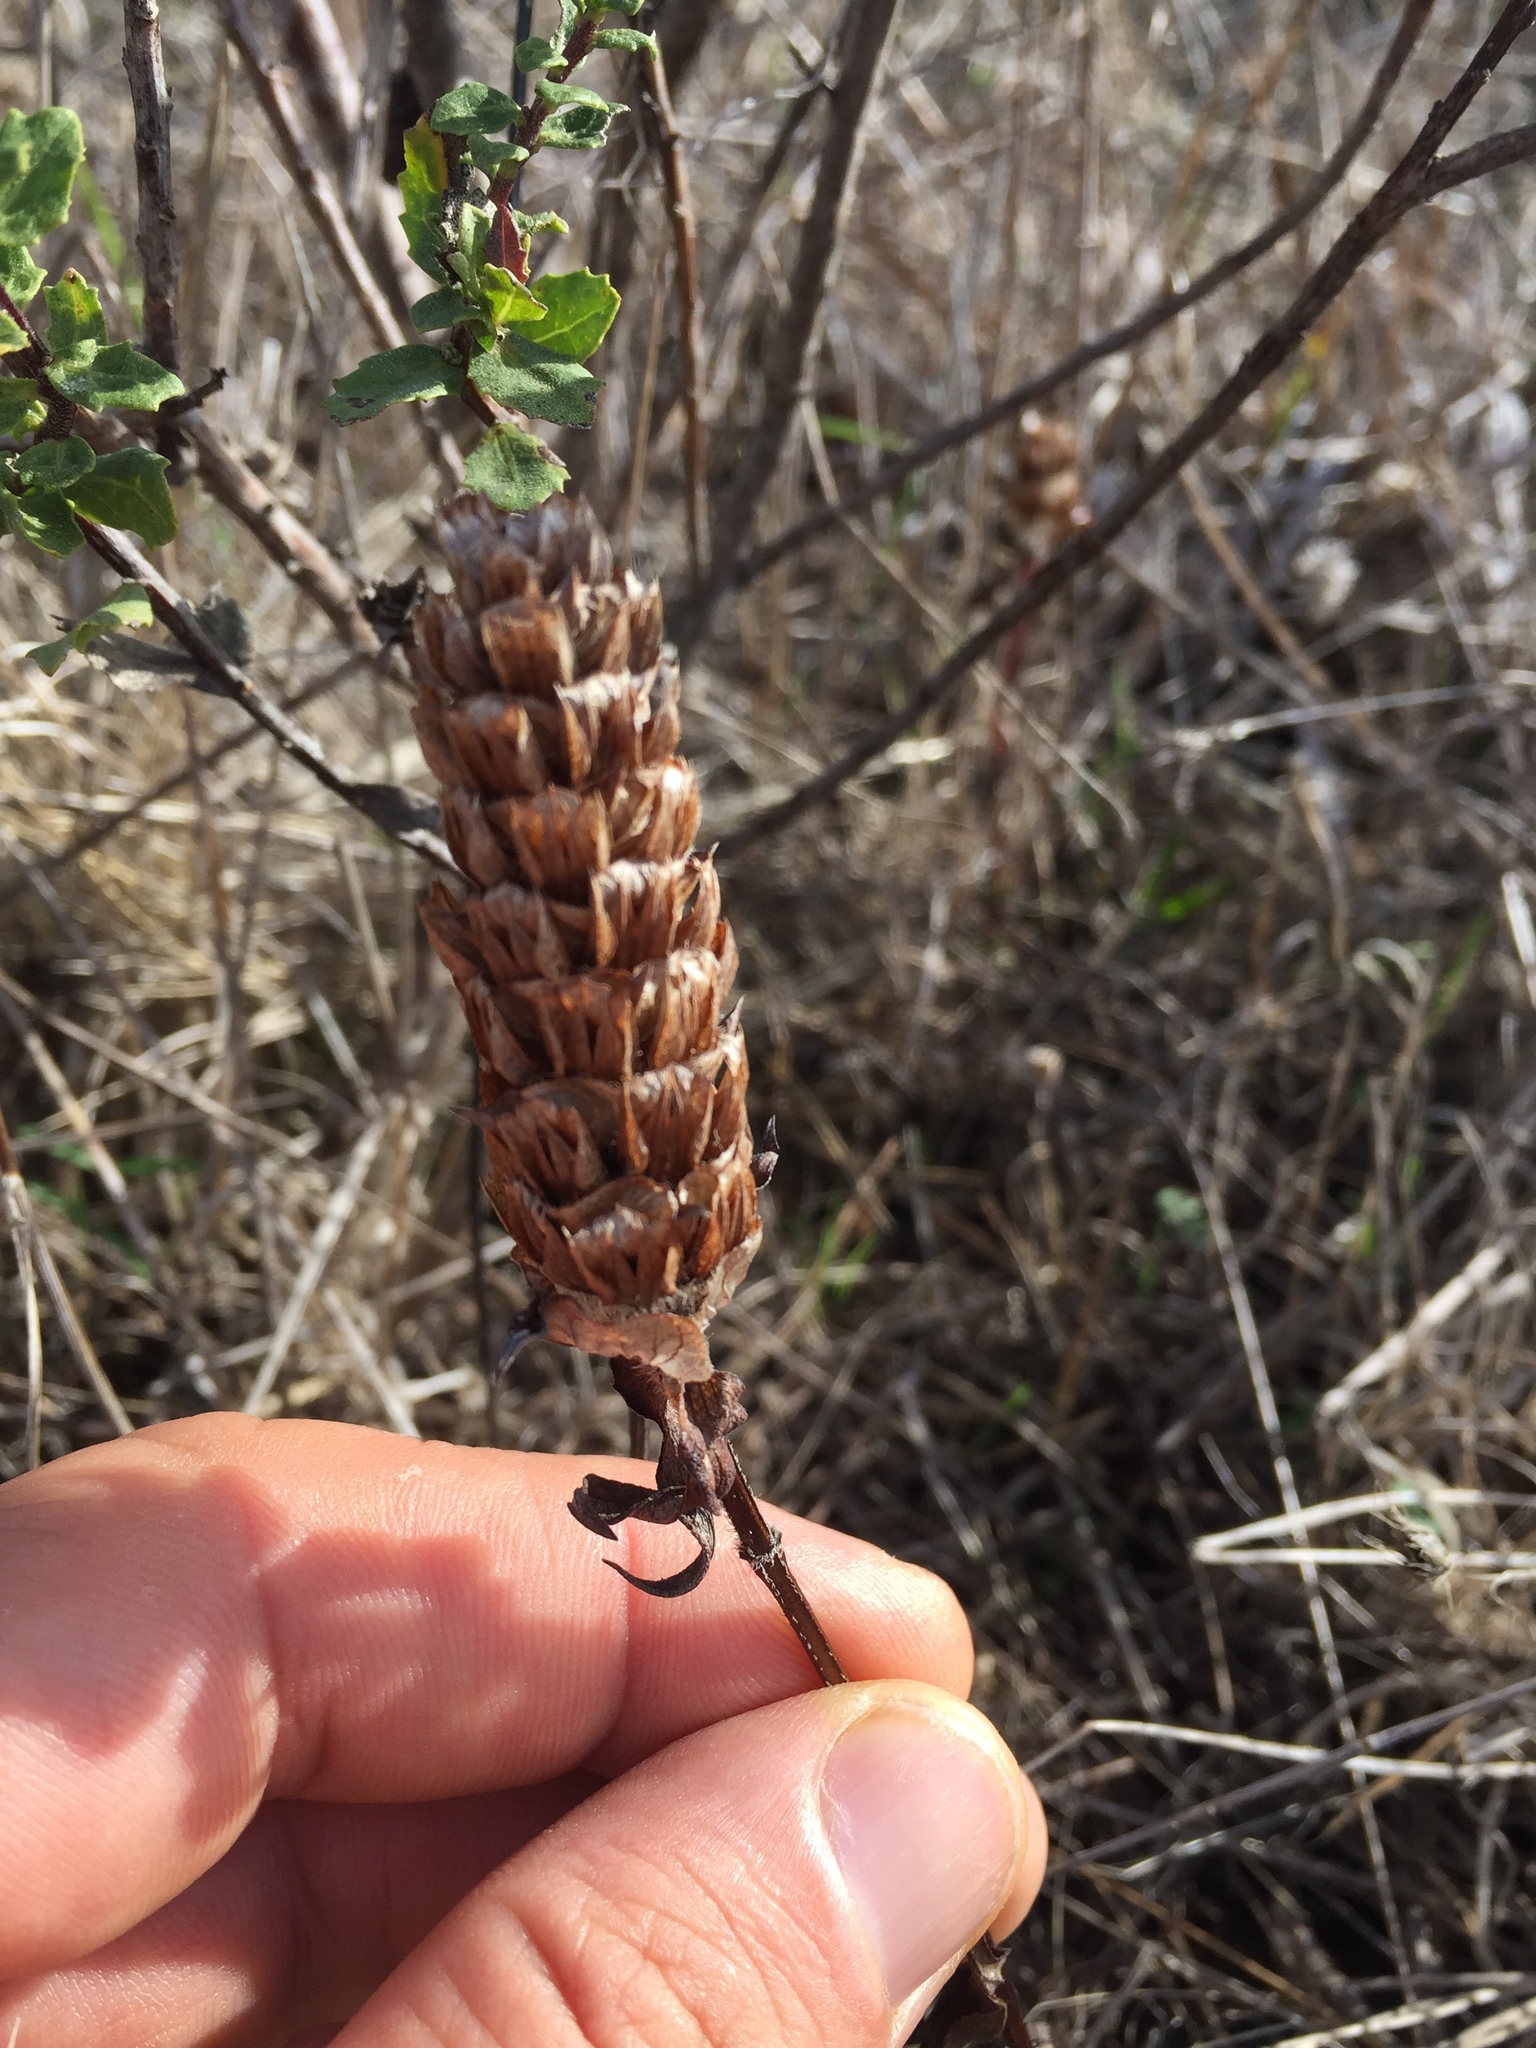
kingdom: Plantae
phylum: Tracheophyta
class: Magnoliopsida
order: Lamiales
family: Lamiaceae
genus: Prunella
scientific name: Prunella vulgaris
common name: Heal-all
